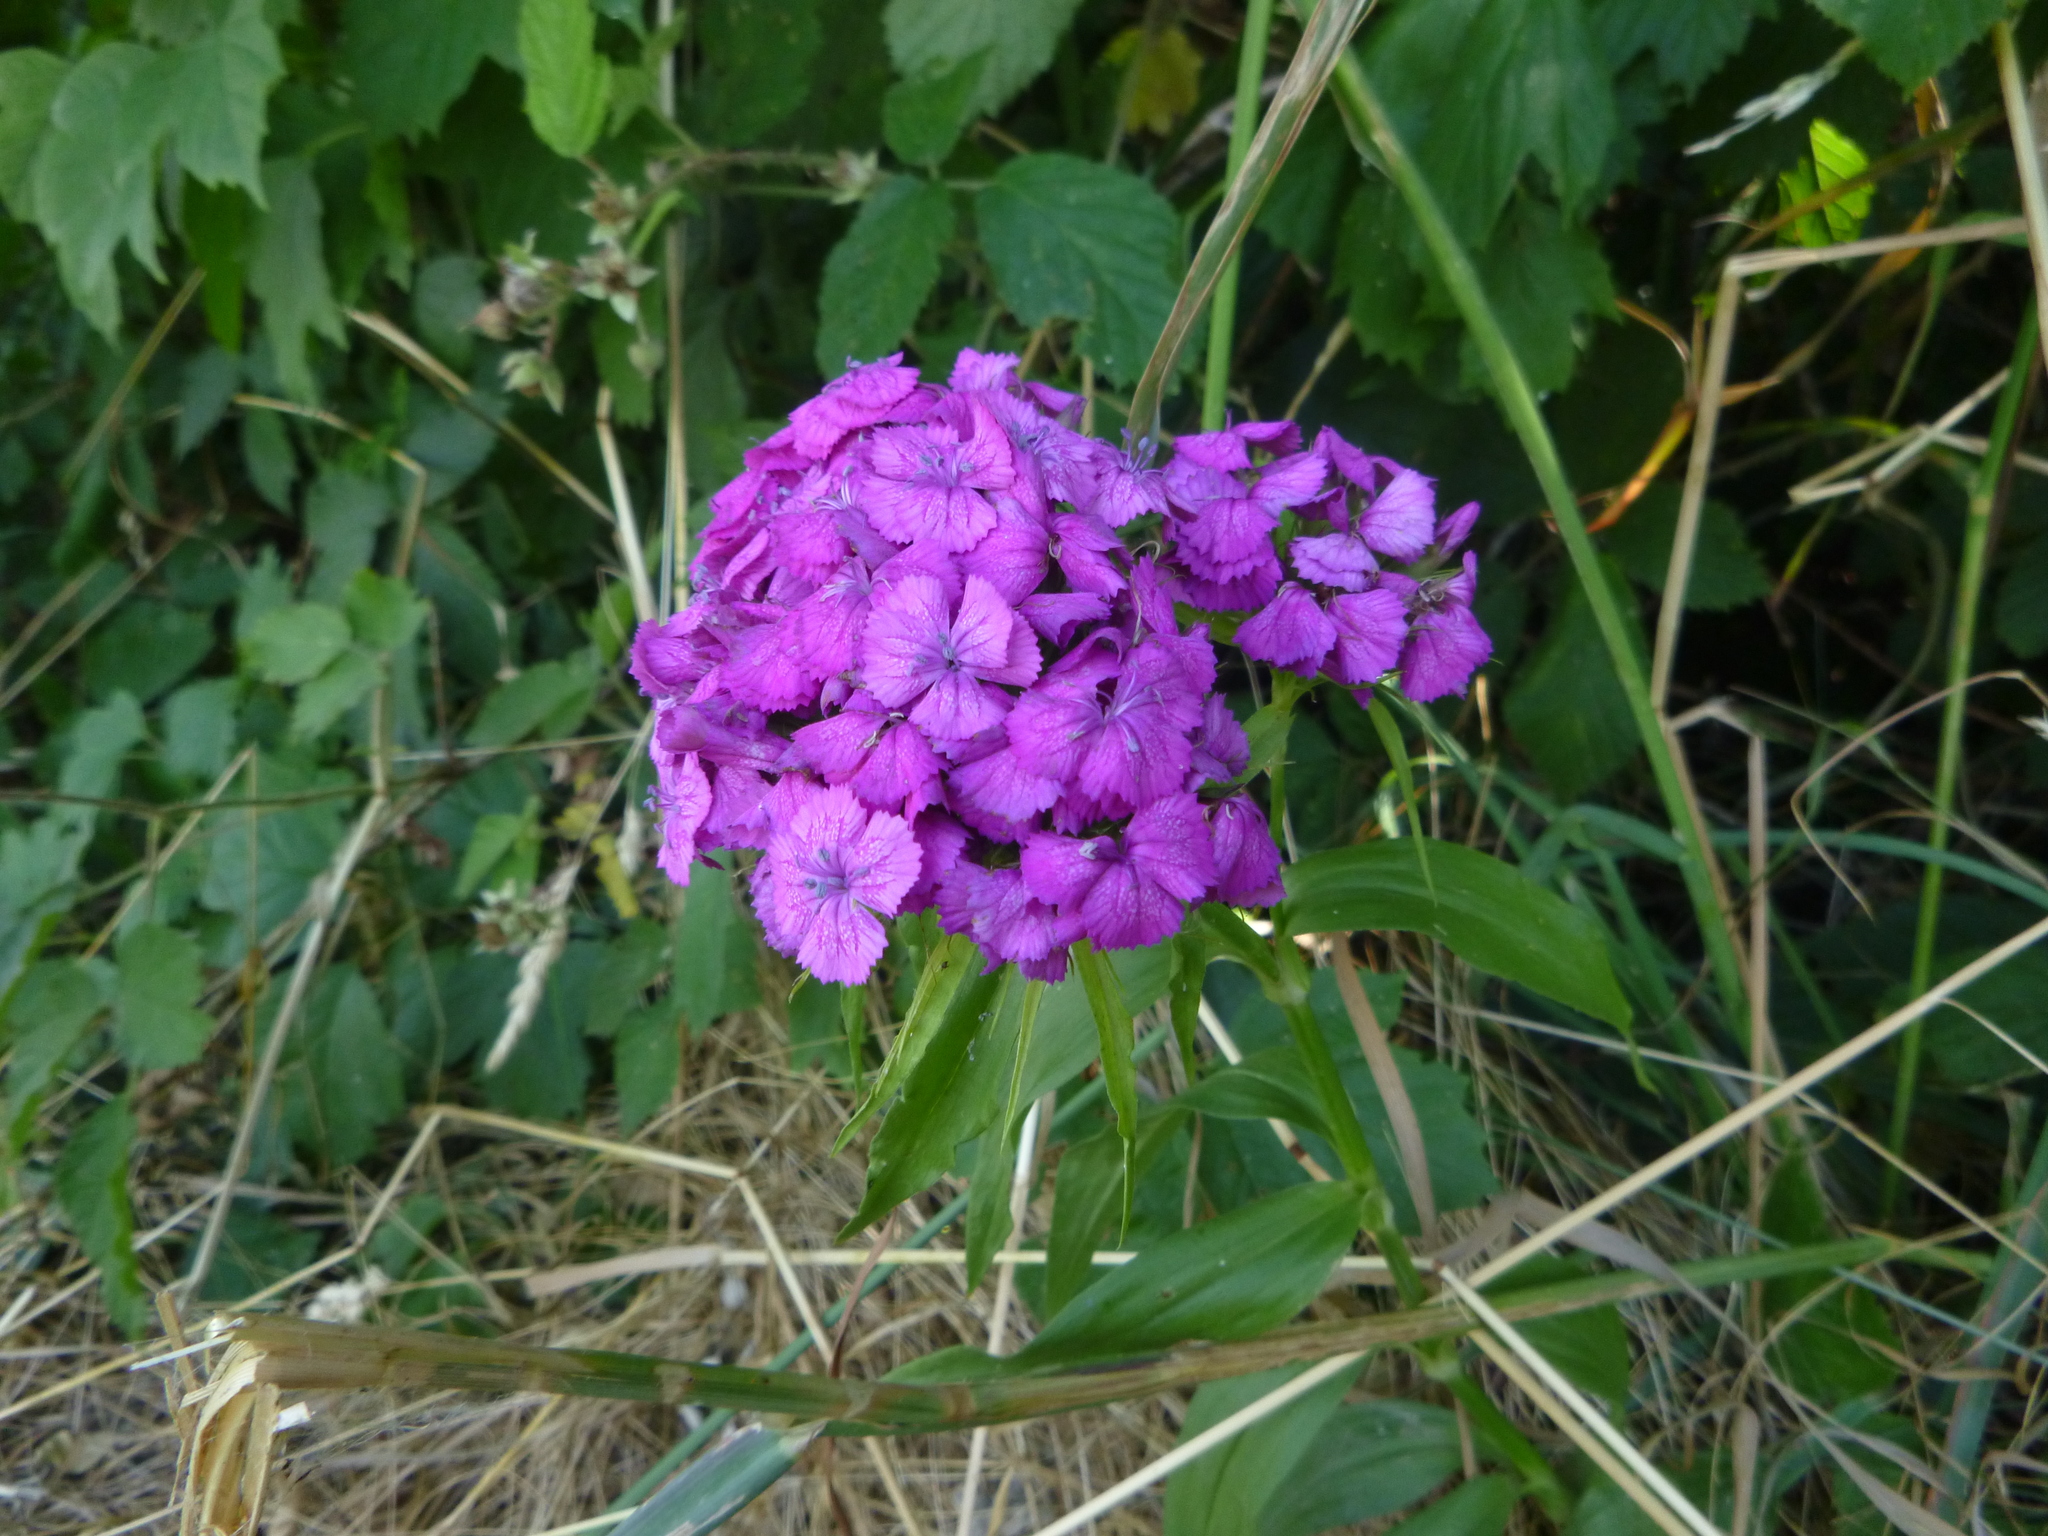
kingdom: Plantae
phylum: Tracheophyta
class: Magnoliopsida
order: Caryophyllales
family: Caryophyllaceae
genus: Dianthus
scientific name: Dianthus barbatus
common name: Sweet-william
